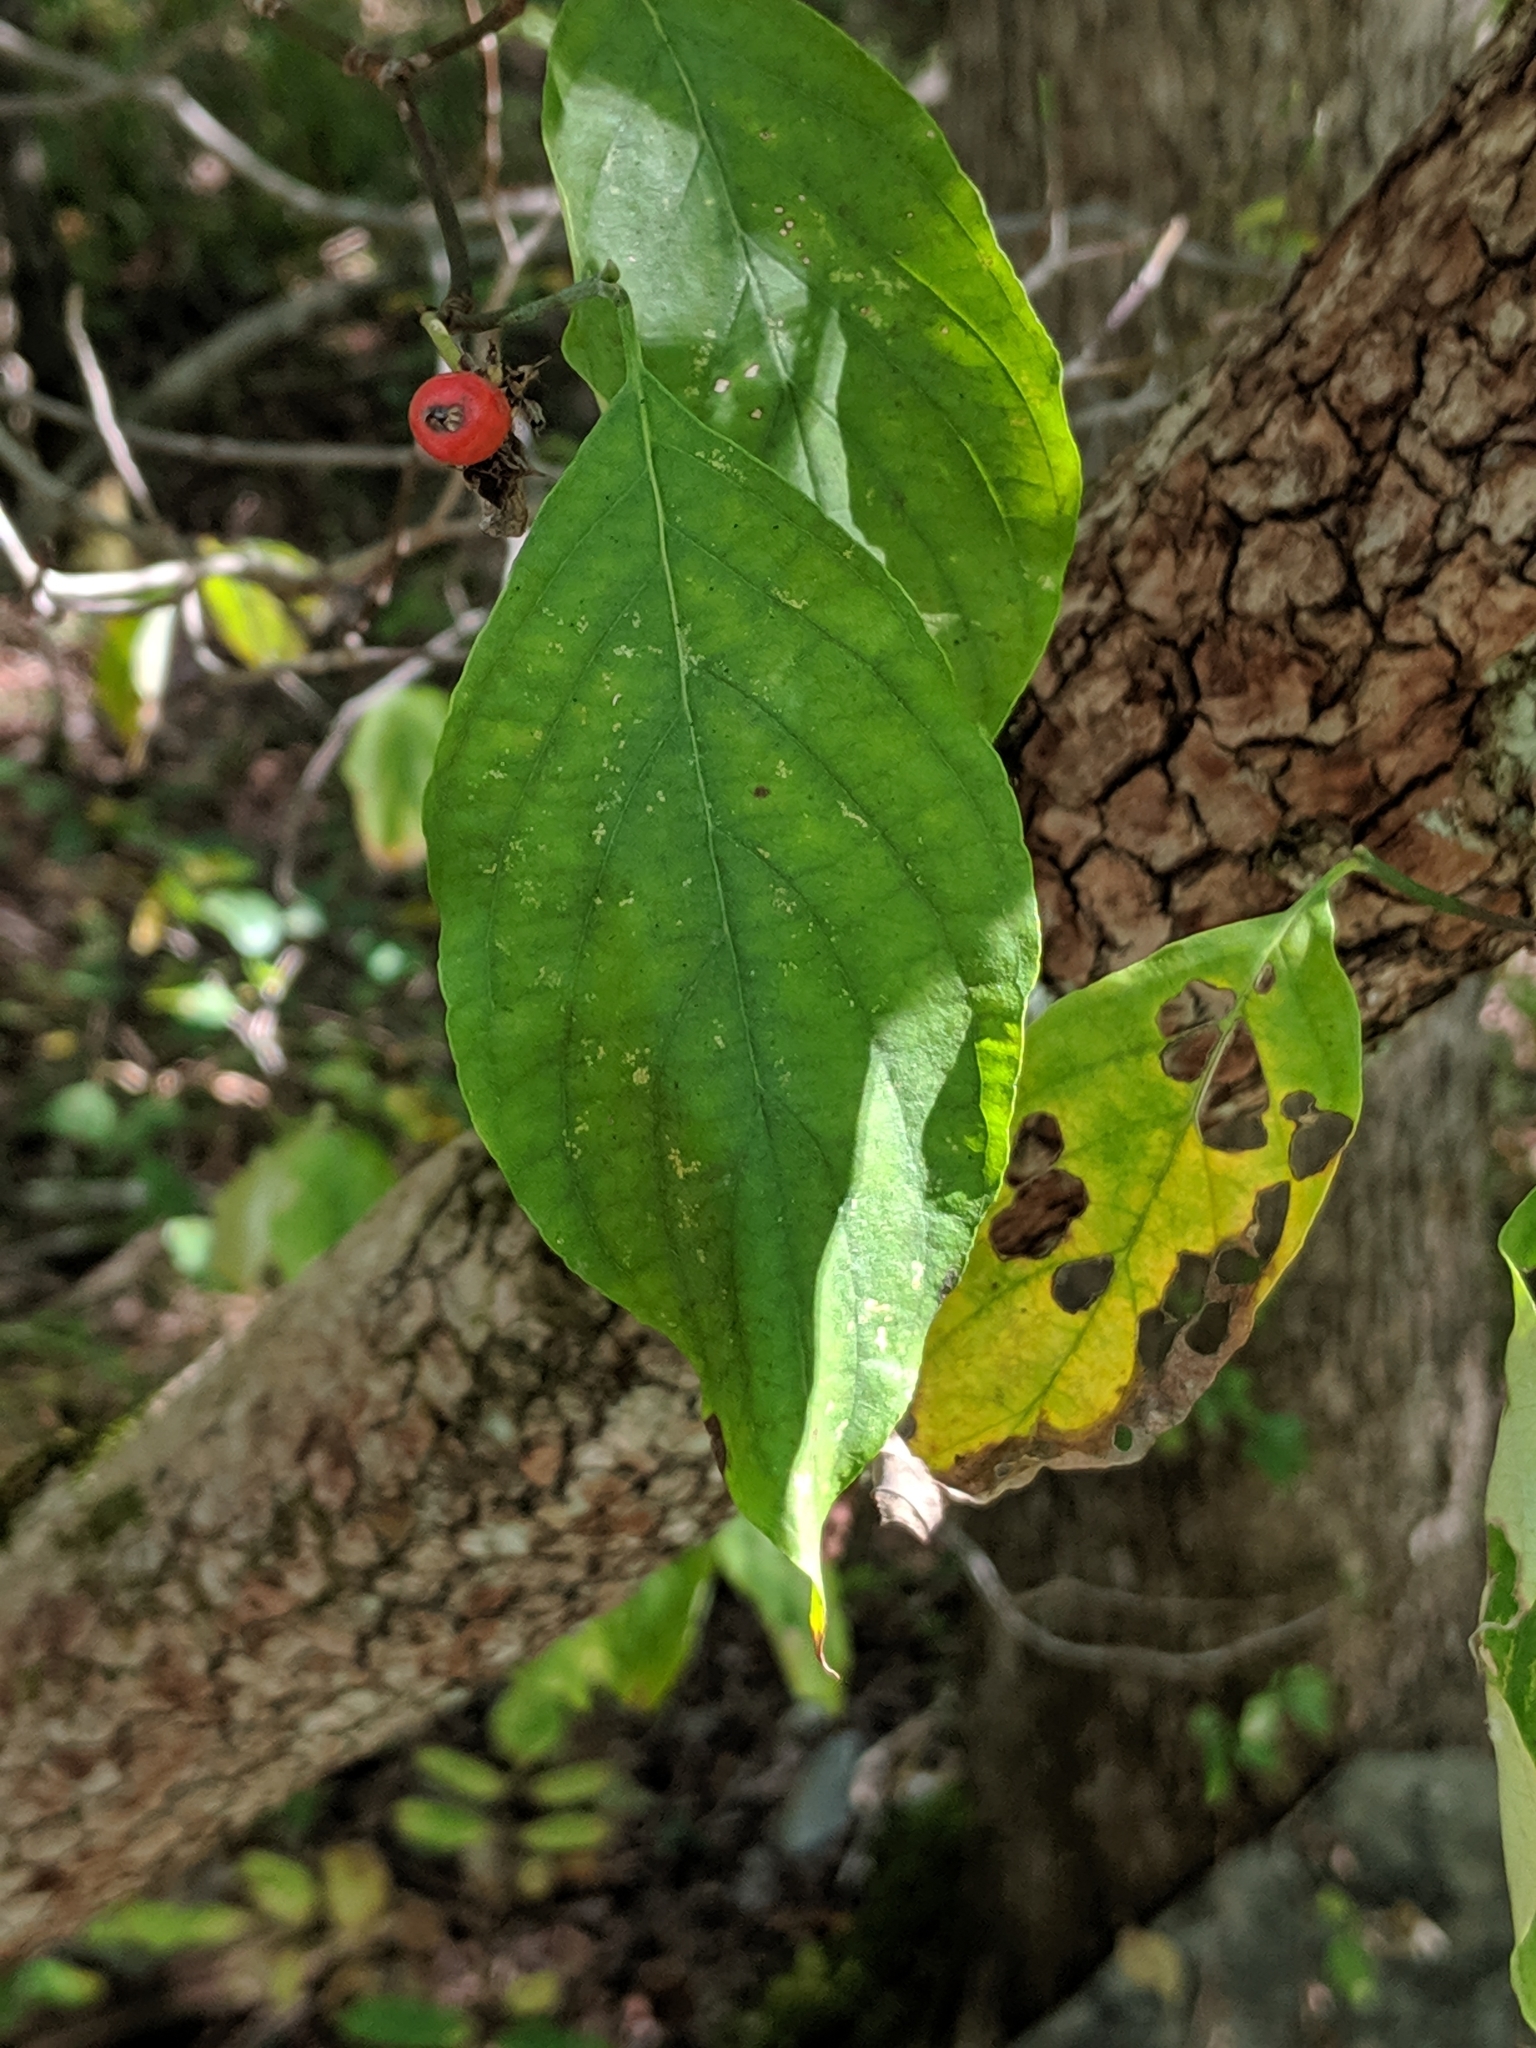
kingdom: Plantae
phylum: Tracheophyta
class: Magnoliopsida
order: Cornales
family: Cornaceae
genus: Cornus
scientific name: Cornus florida
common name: Flowering dogwood
